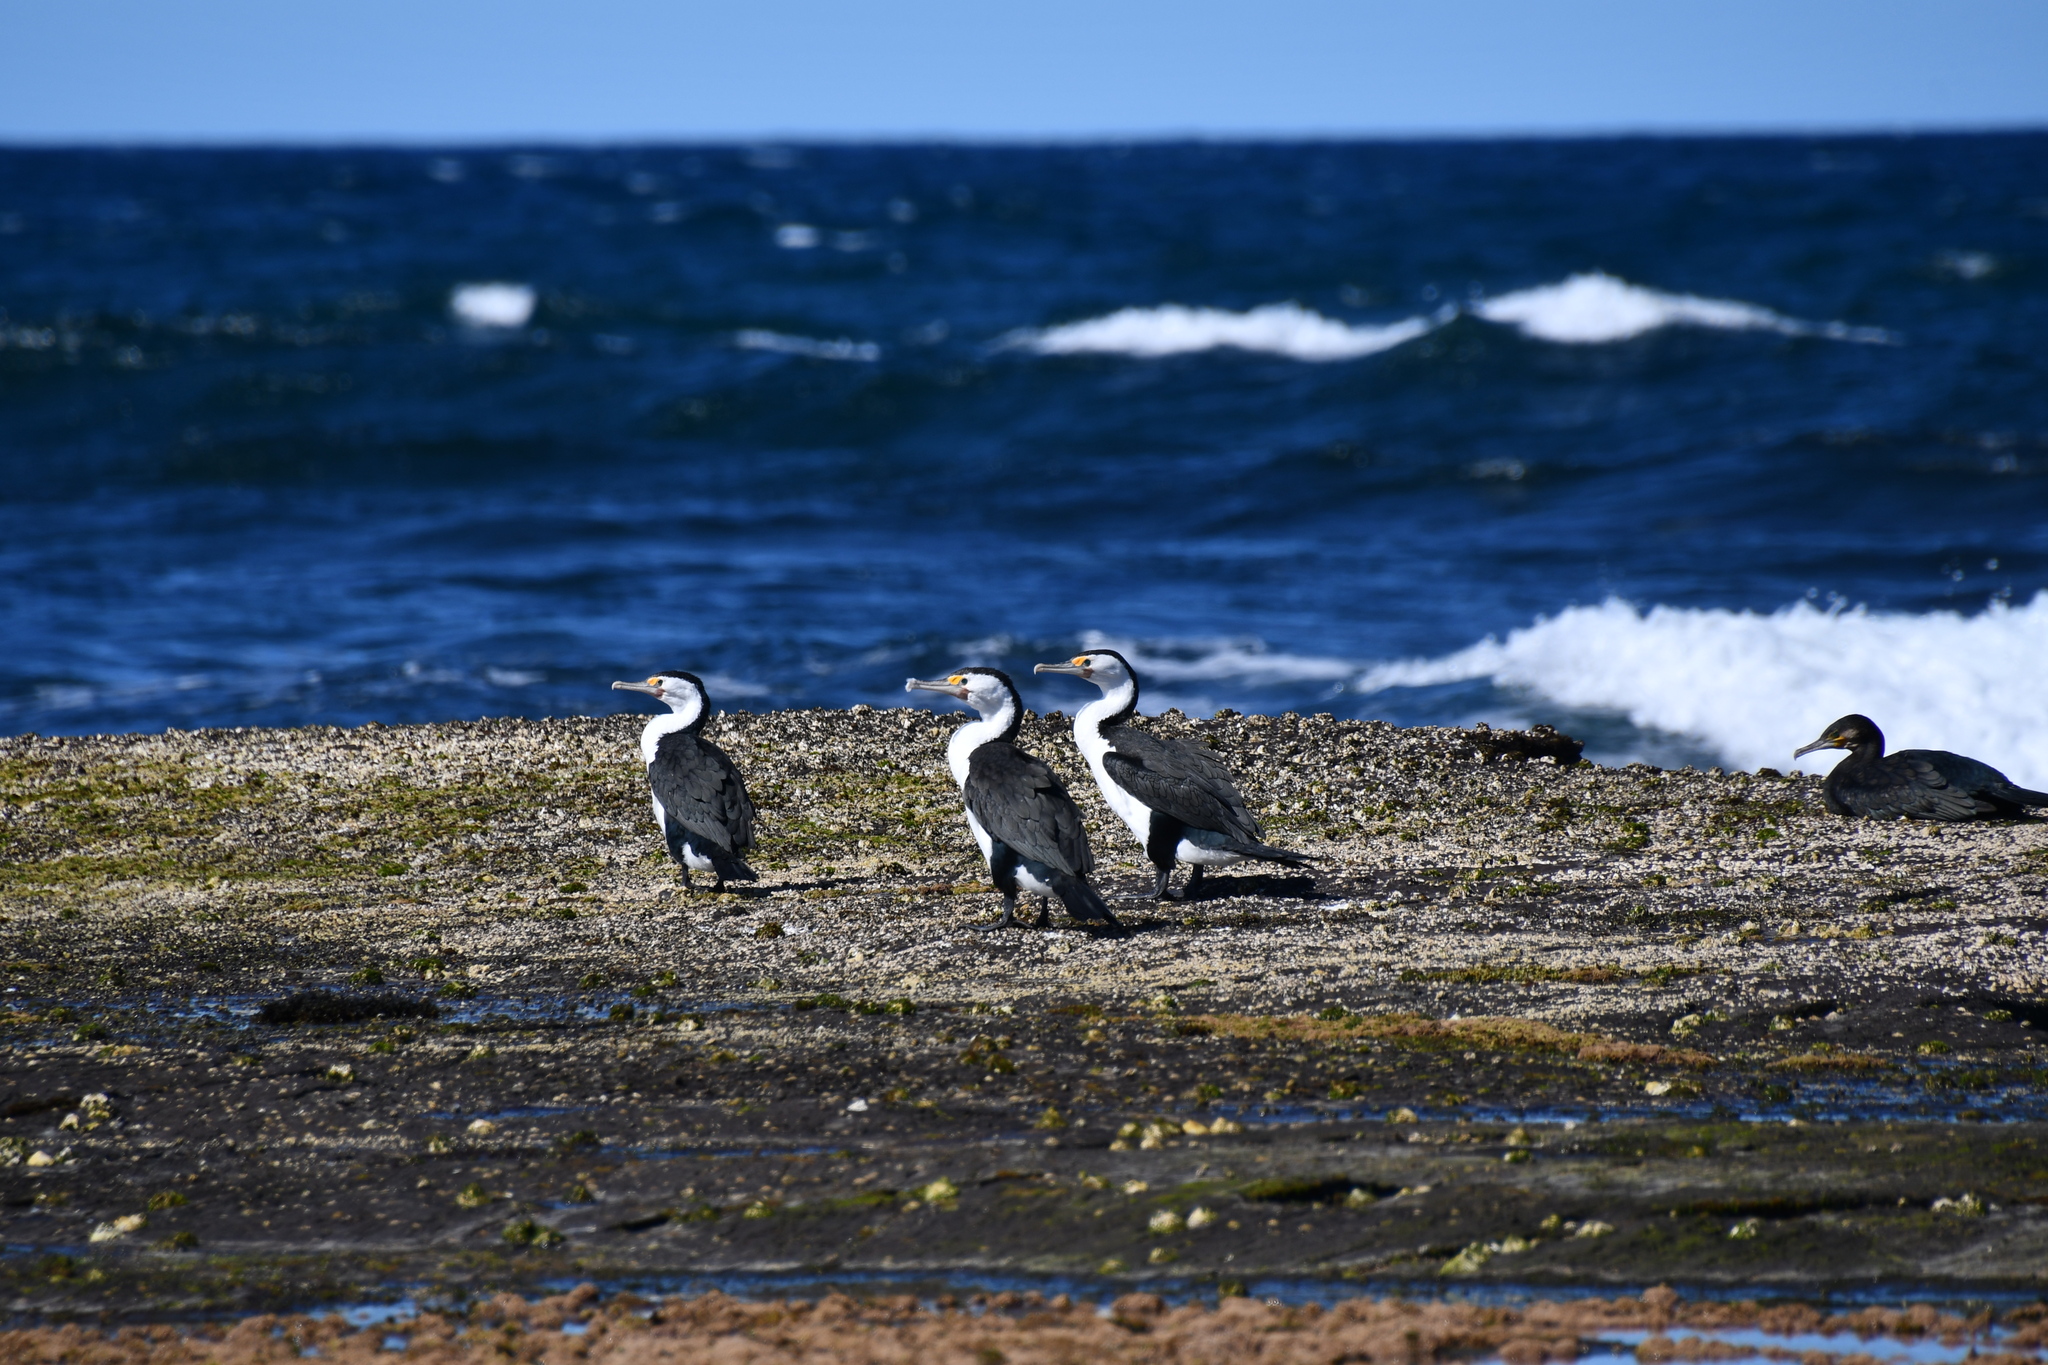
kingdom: Animalia
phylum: Chordata
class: Aves
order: Suliformes
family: Phalacrocoracidae
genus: Phalacrocorax
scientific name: Phalacrocorax varius
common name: Pied cormorant
